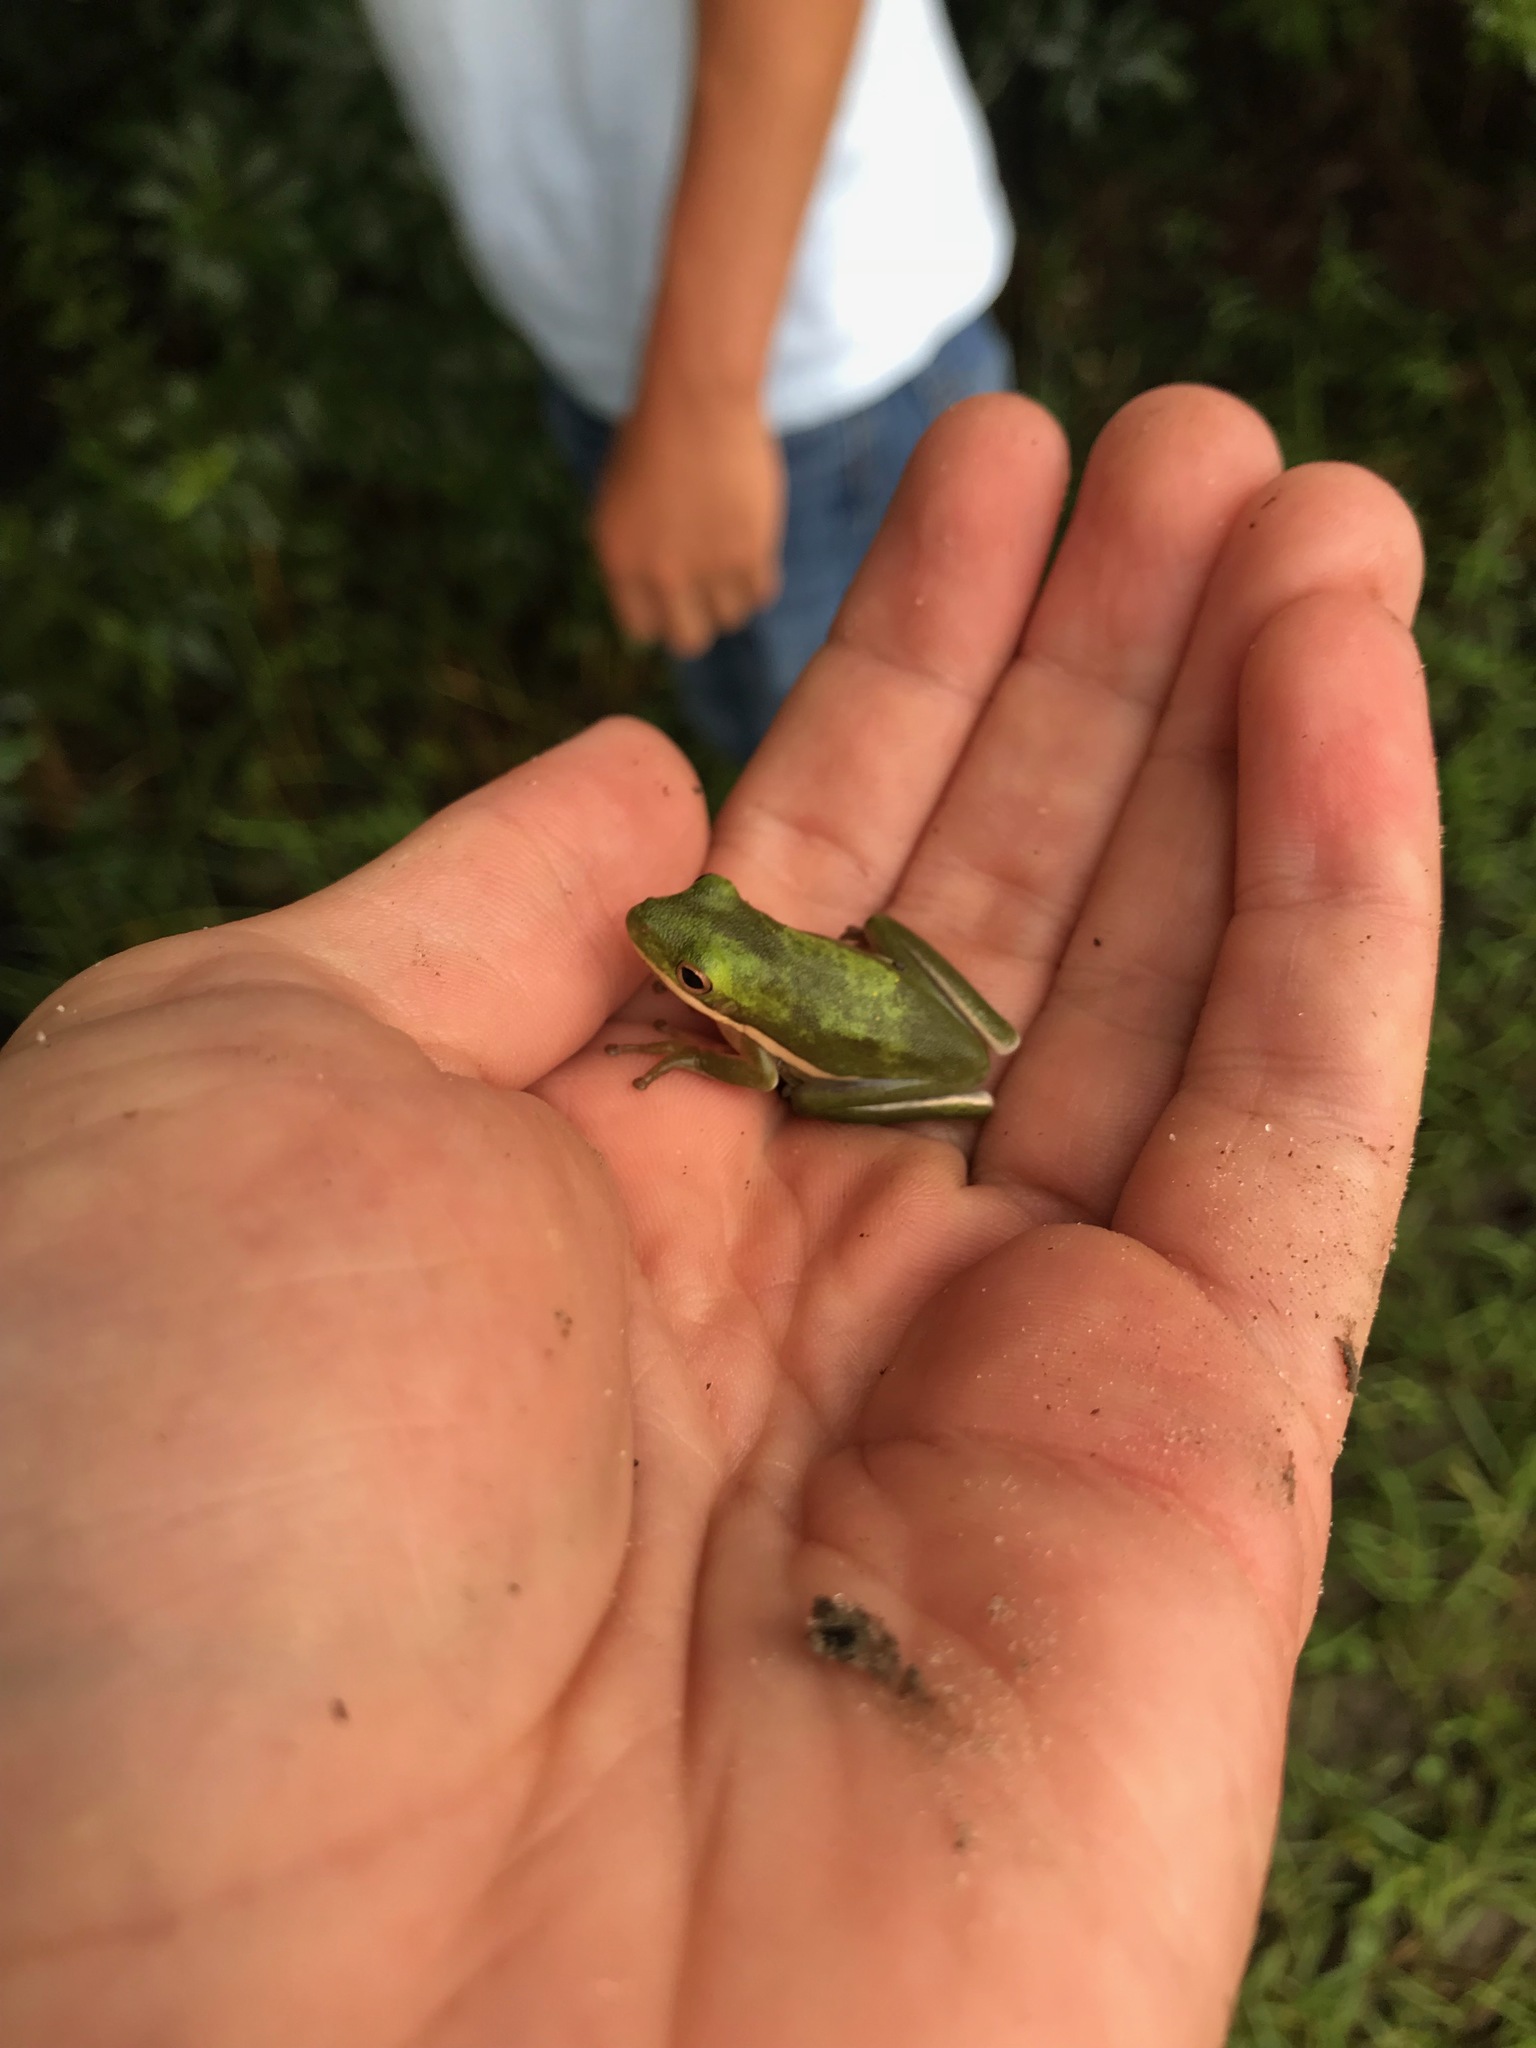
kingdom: Animalia
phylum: Chordata
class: Amphibia
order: Anura
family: Hylidae
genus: Dryophytes
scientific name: Dryophytes cinereus
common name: Green treefrog
